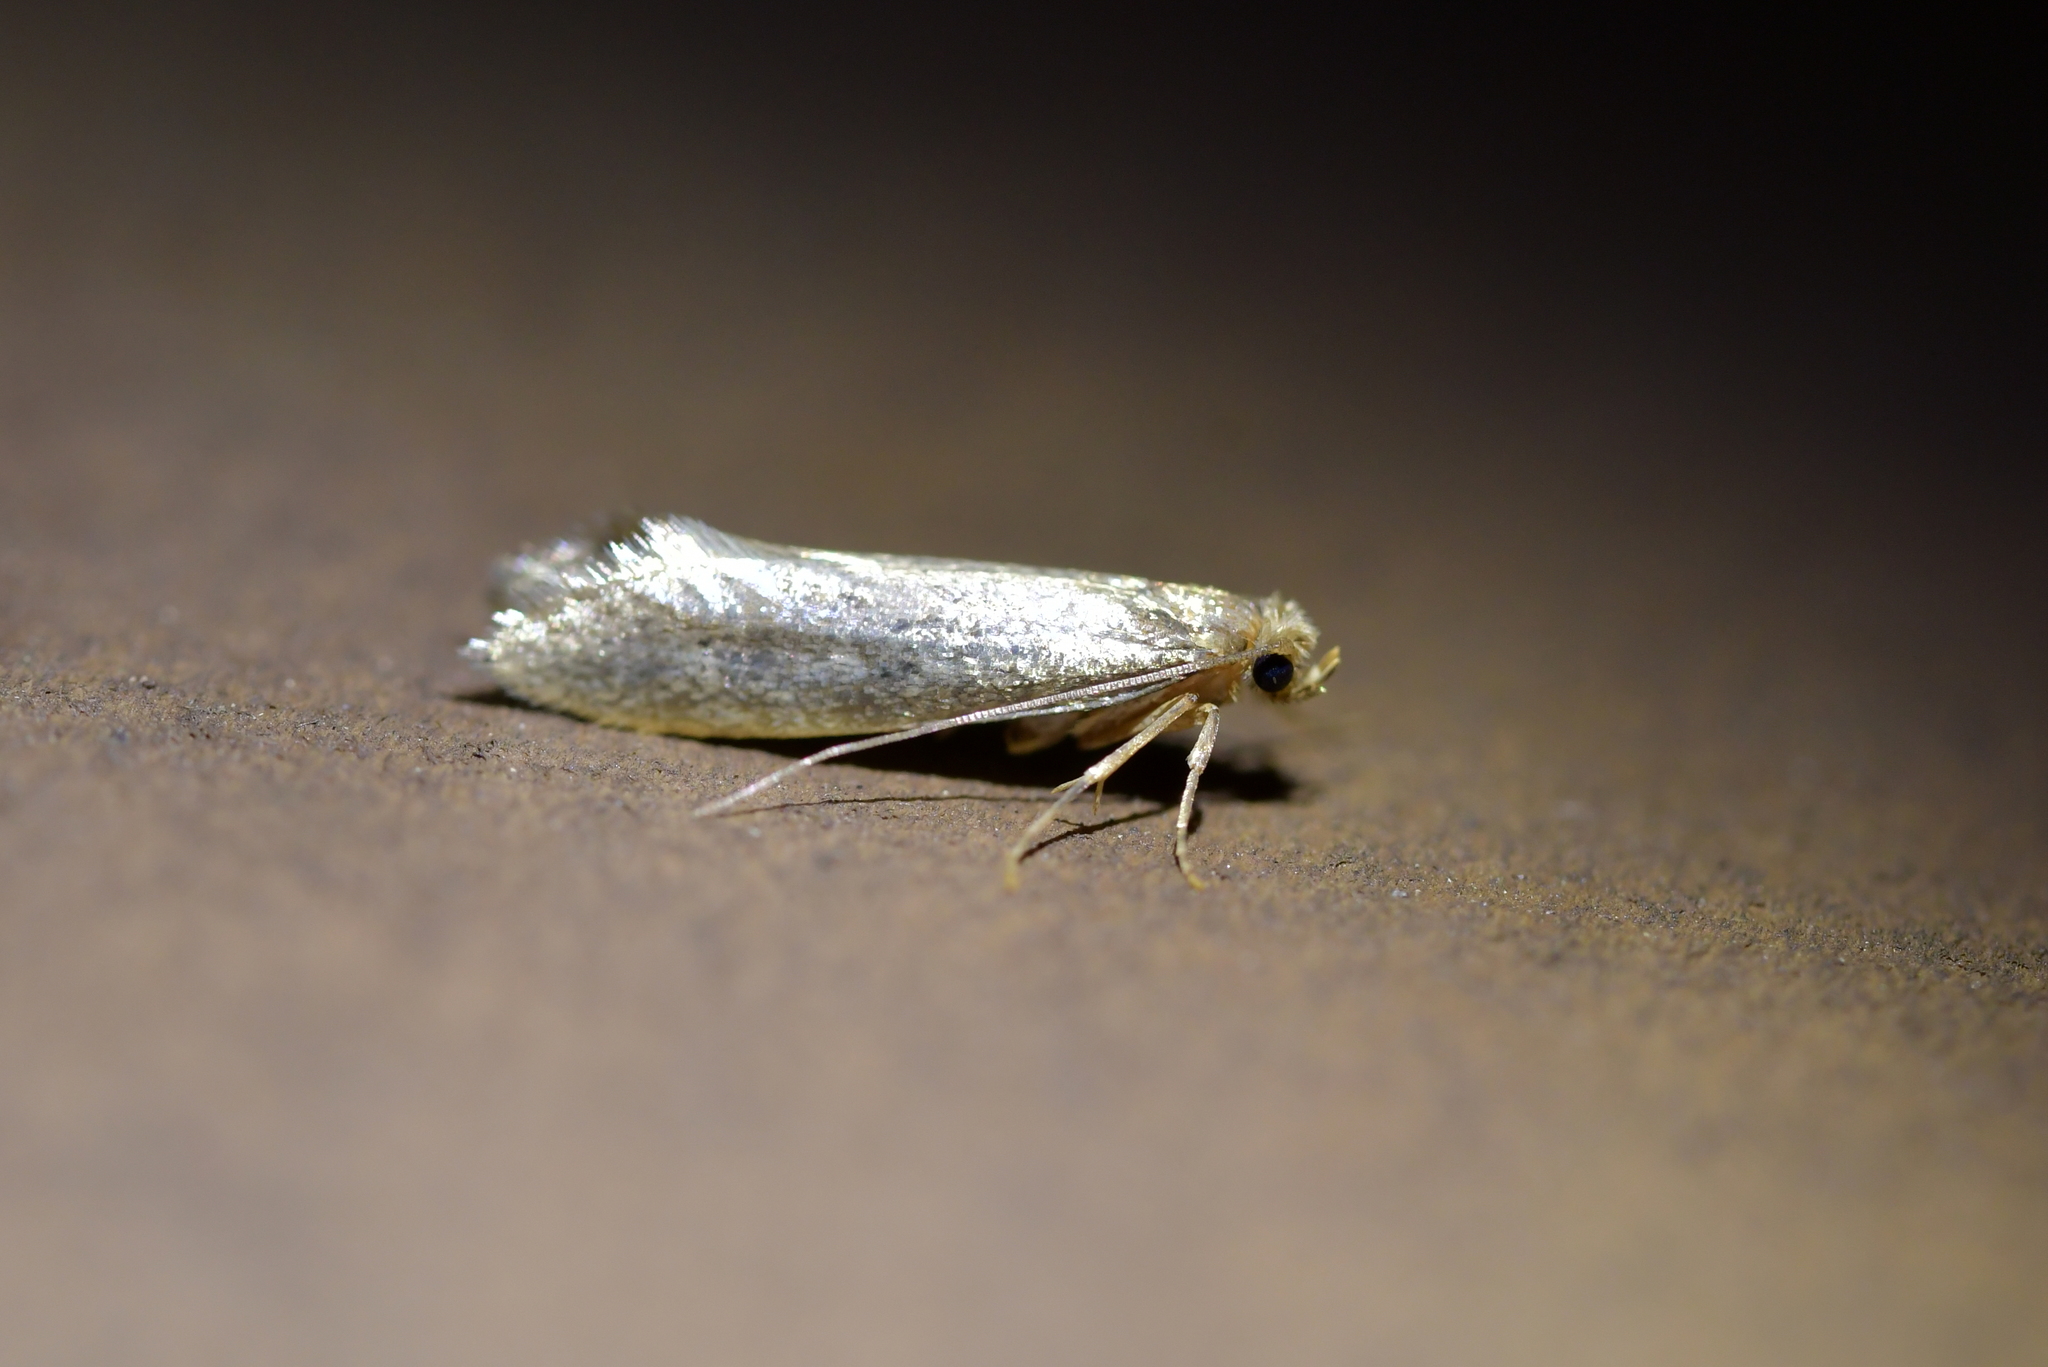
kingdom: Animalia
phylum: Arthropoda
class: Insecta
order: Lepidoptera
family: Tineidae
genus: Tinea
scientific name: Tinea pallescentella
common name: Large pale clothes moth
